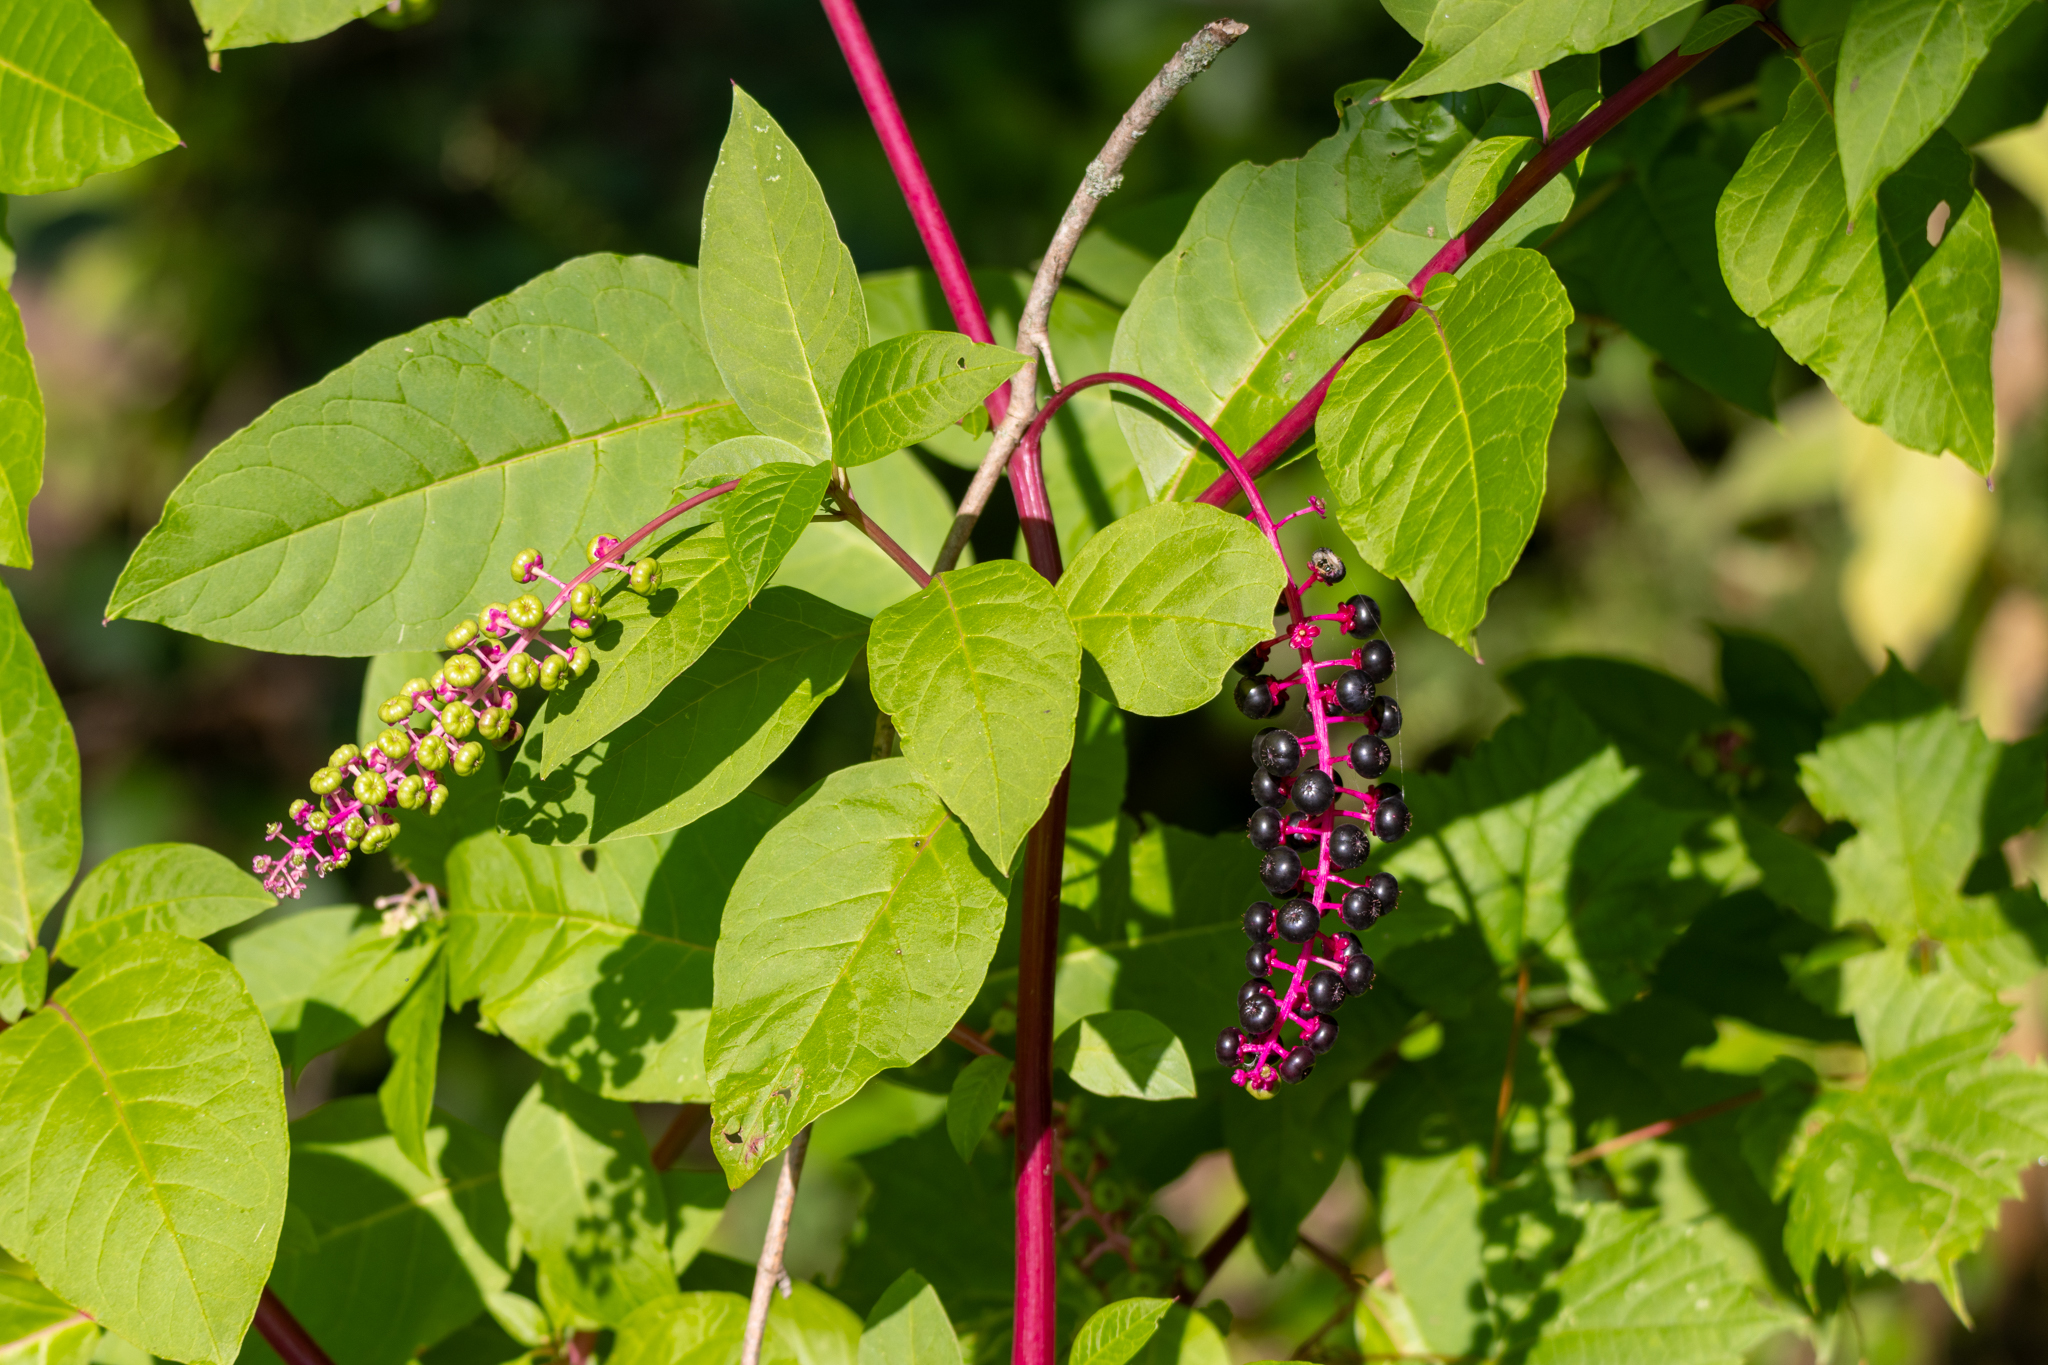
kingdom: Plantae
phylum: Tracheophyta
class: Magnoliopsida
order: Caryophyllales
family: Phytolaccaceae
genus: Phytolacca
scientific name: Phytolacca americana
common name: American pokeweed
